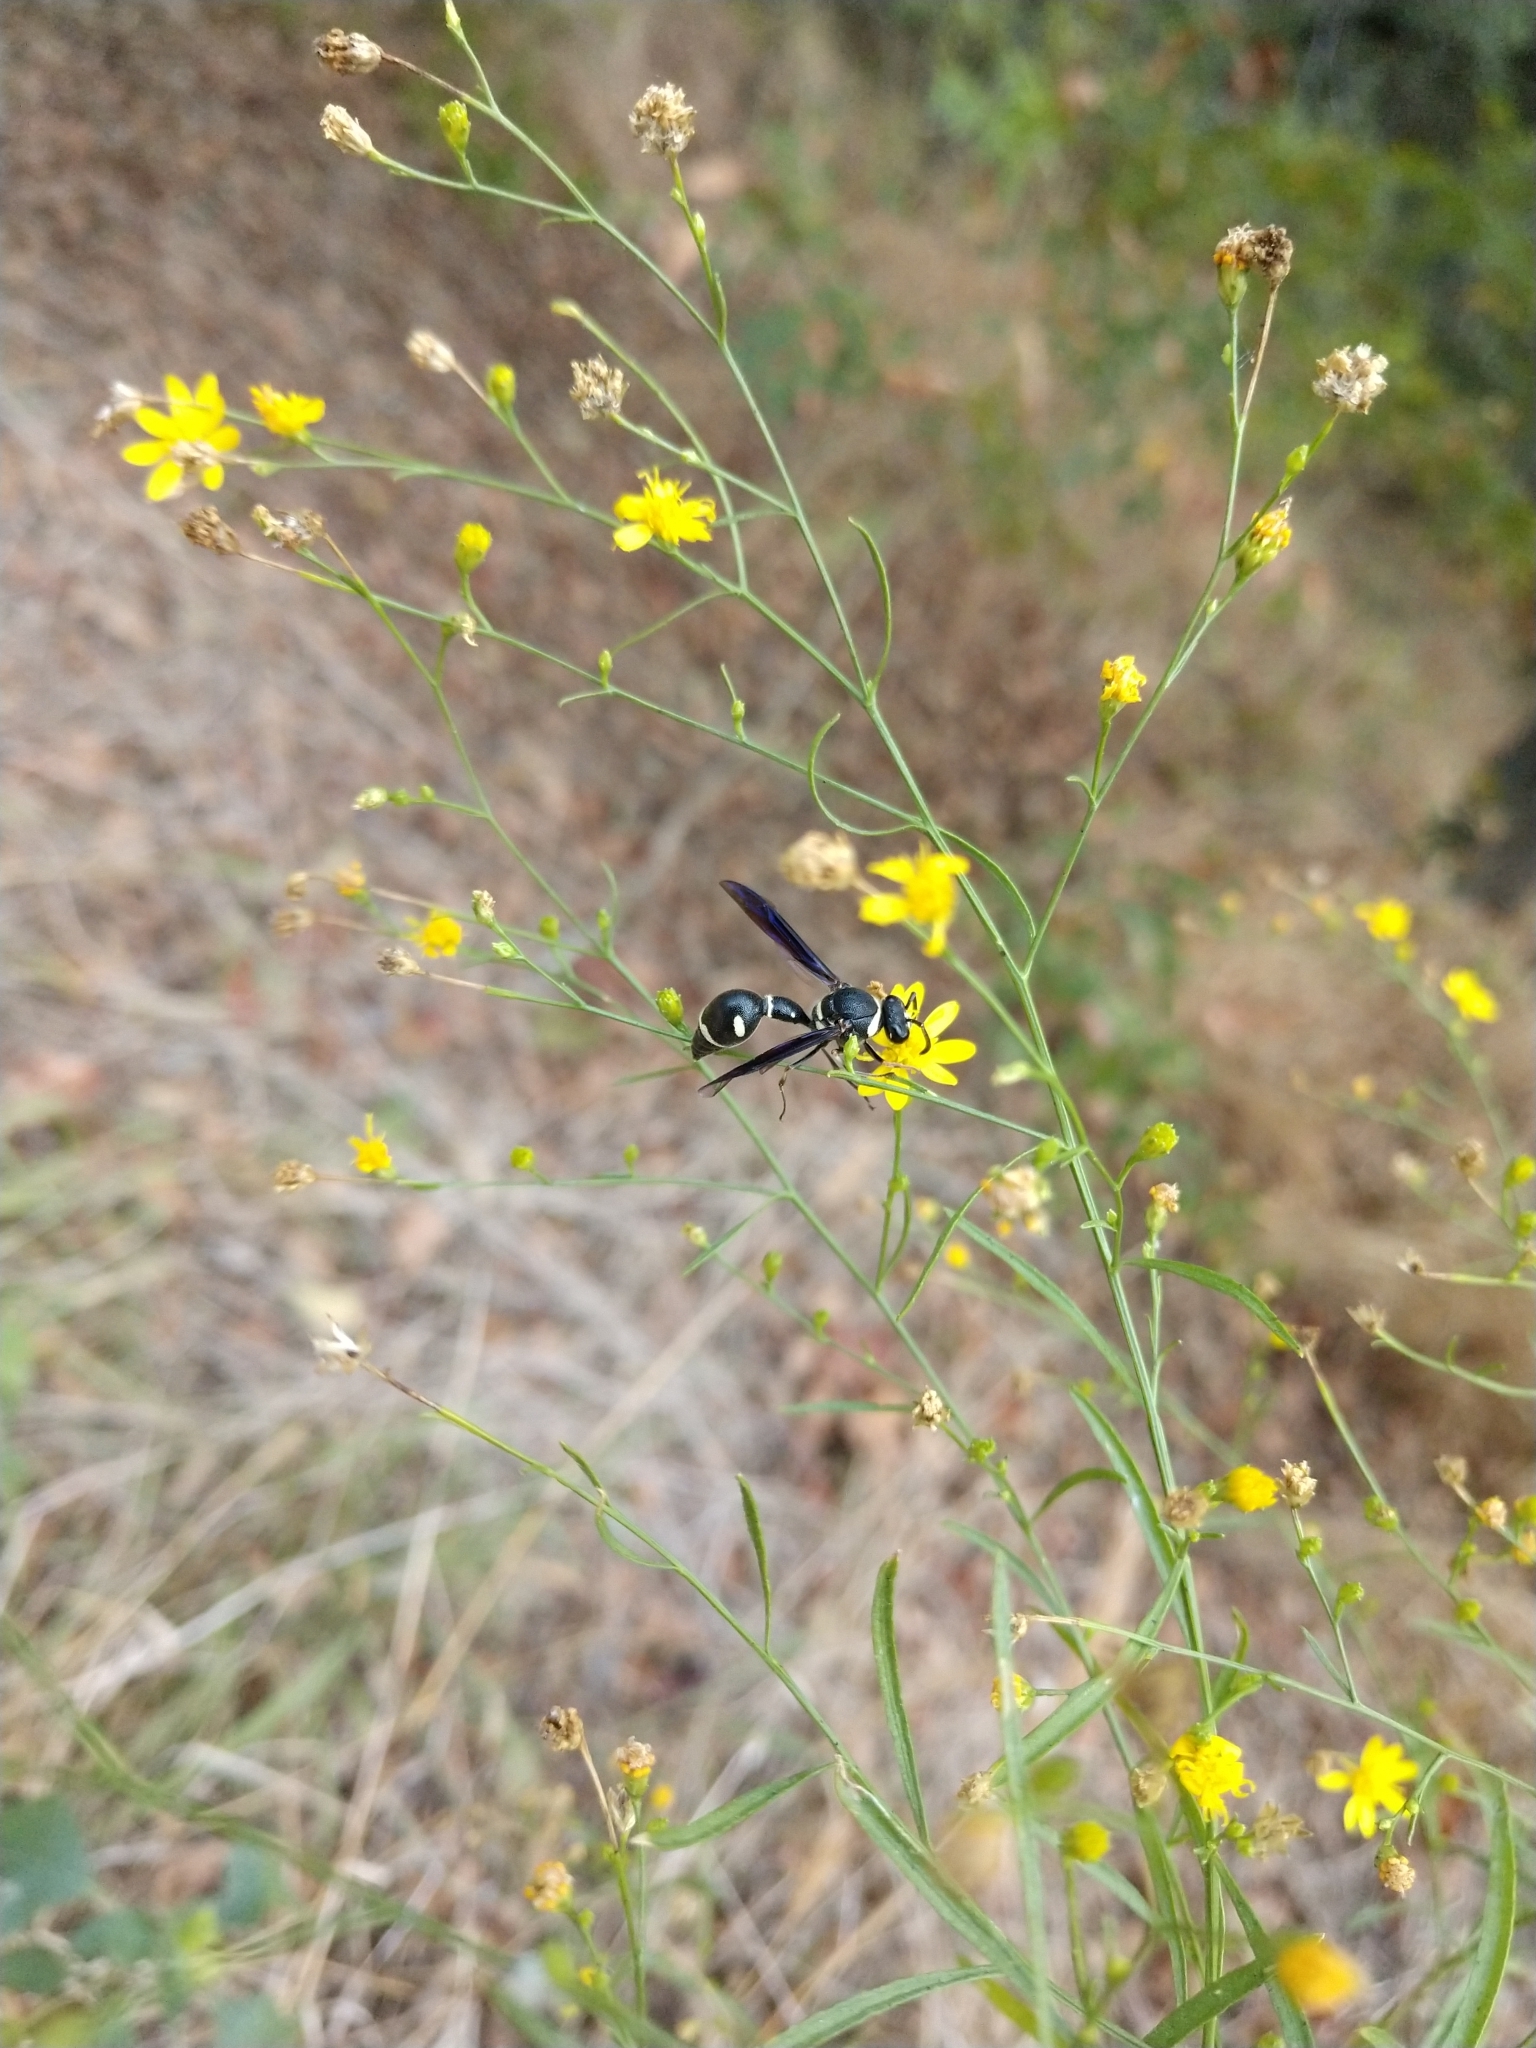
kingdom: Animalia
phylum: Arthropoda
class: Insecta
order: Hymenoptera
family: Vespidae
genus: Eumenes
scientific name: Eumenes fraternus
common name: Fraternal potter wasp
